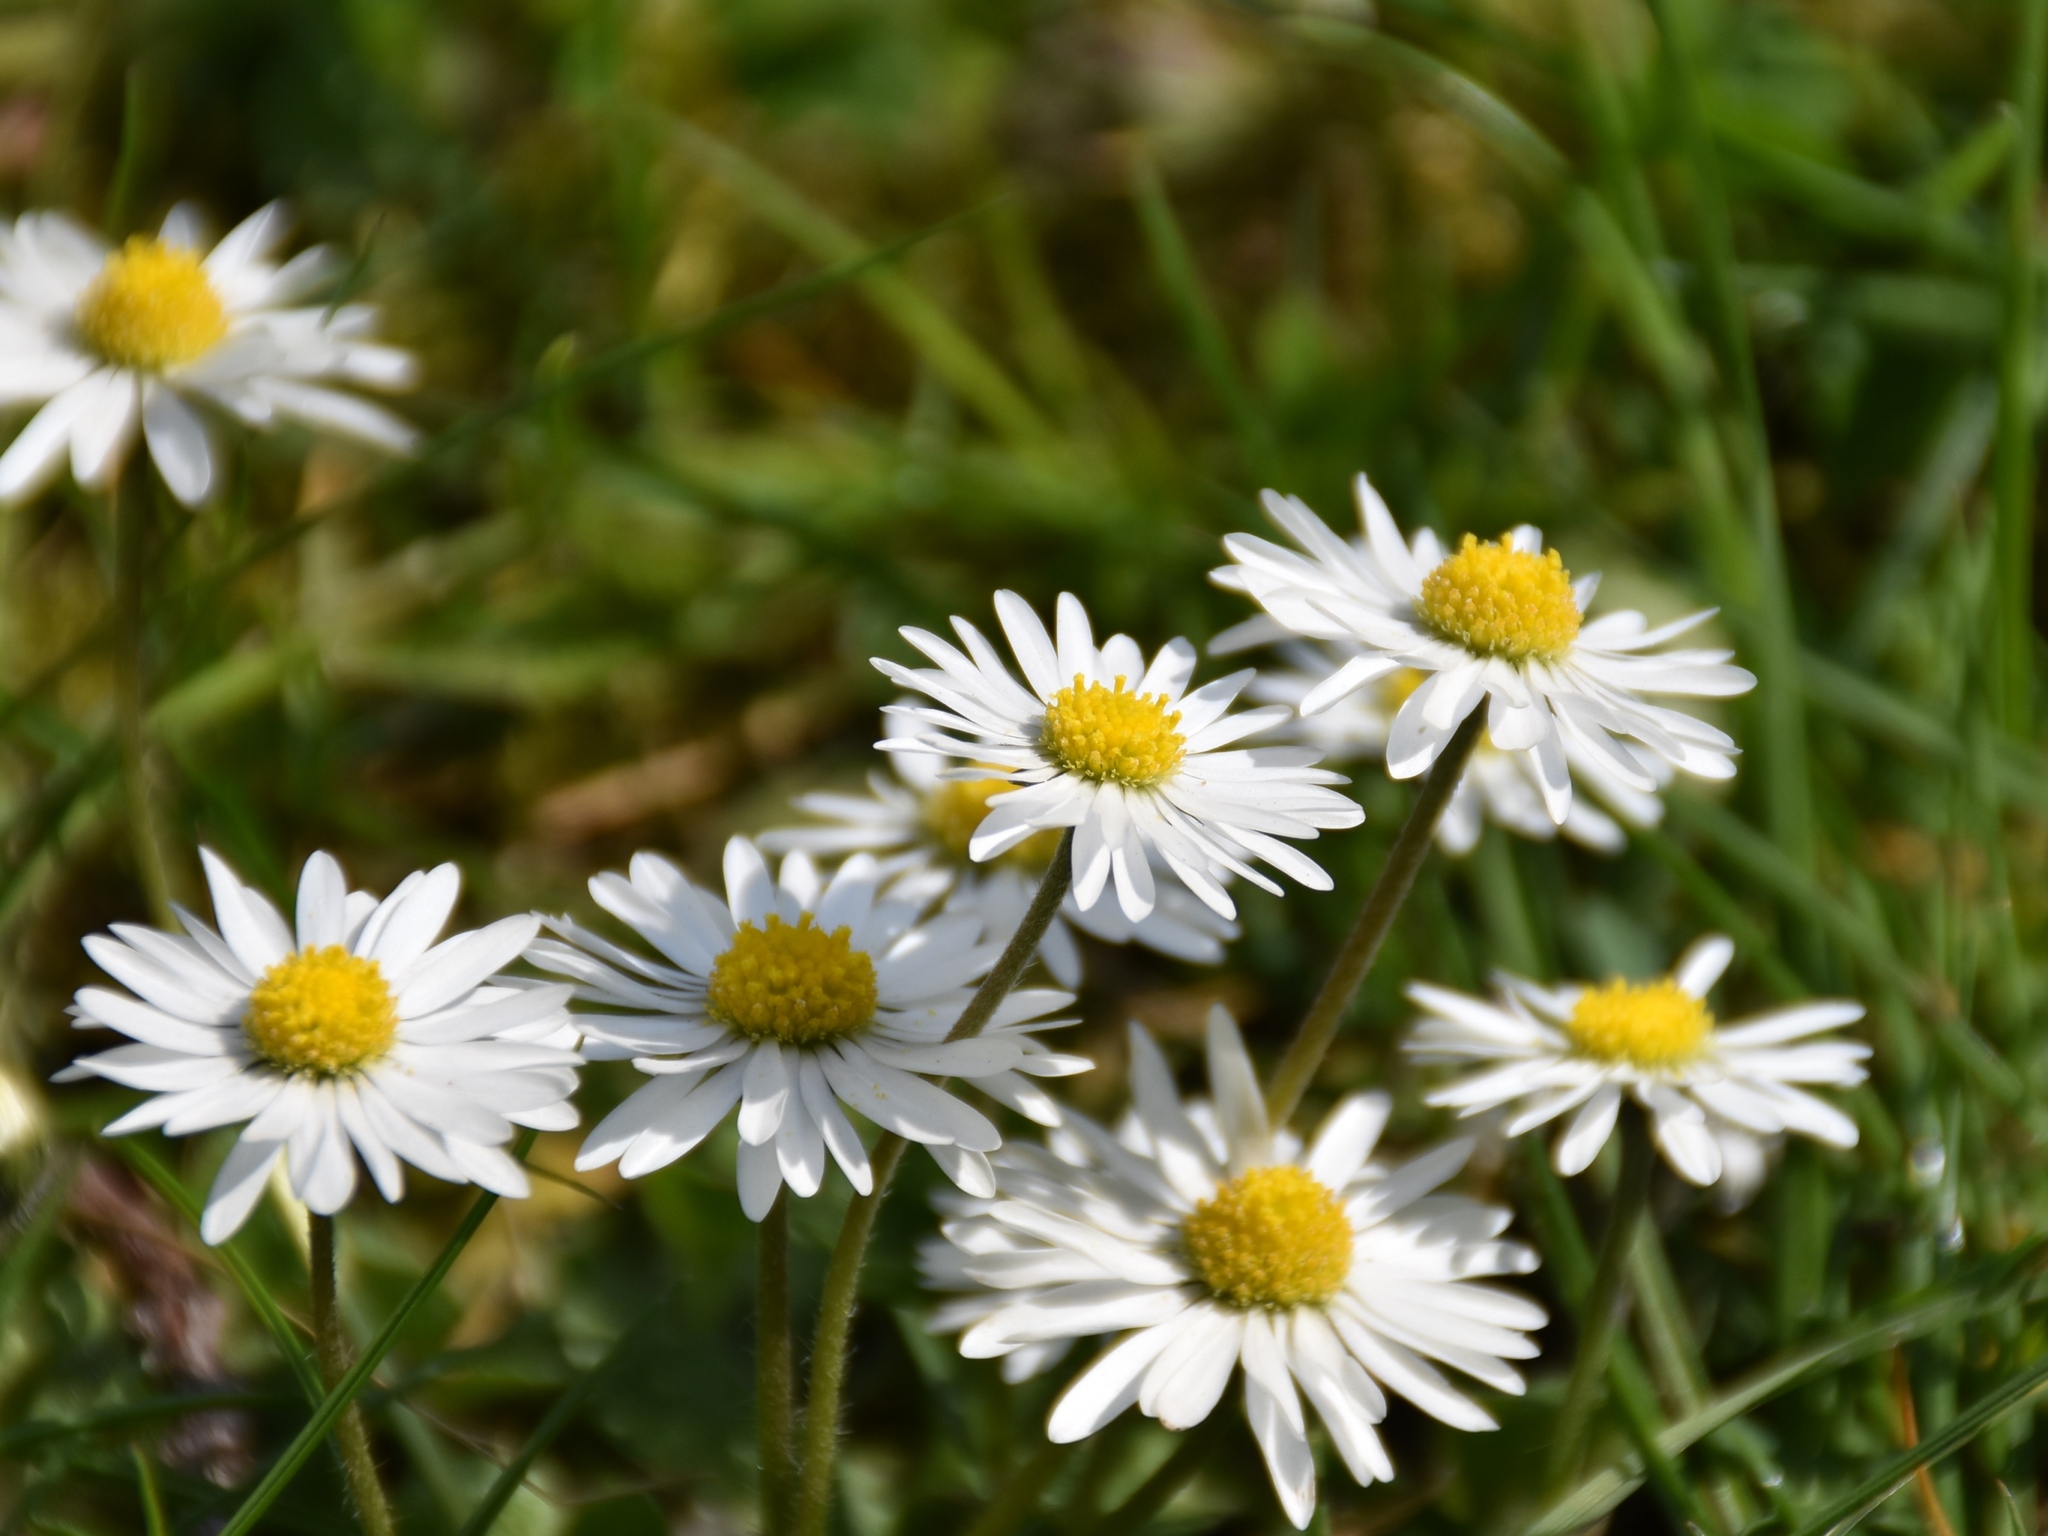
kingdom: Plantae
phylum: Tracheophyta
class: Magnoliopsida
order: Asterales
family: Asteraceae
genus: Bellis
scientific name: Bellis perennis
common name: Lawndaisy
